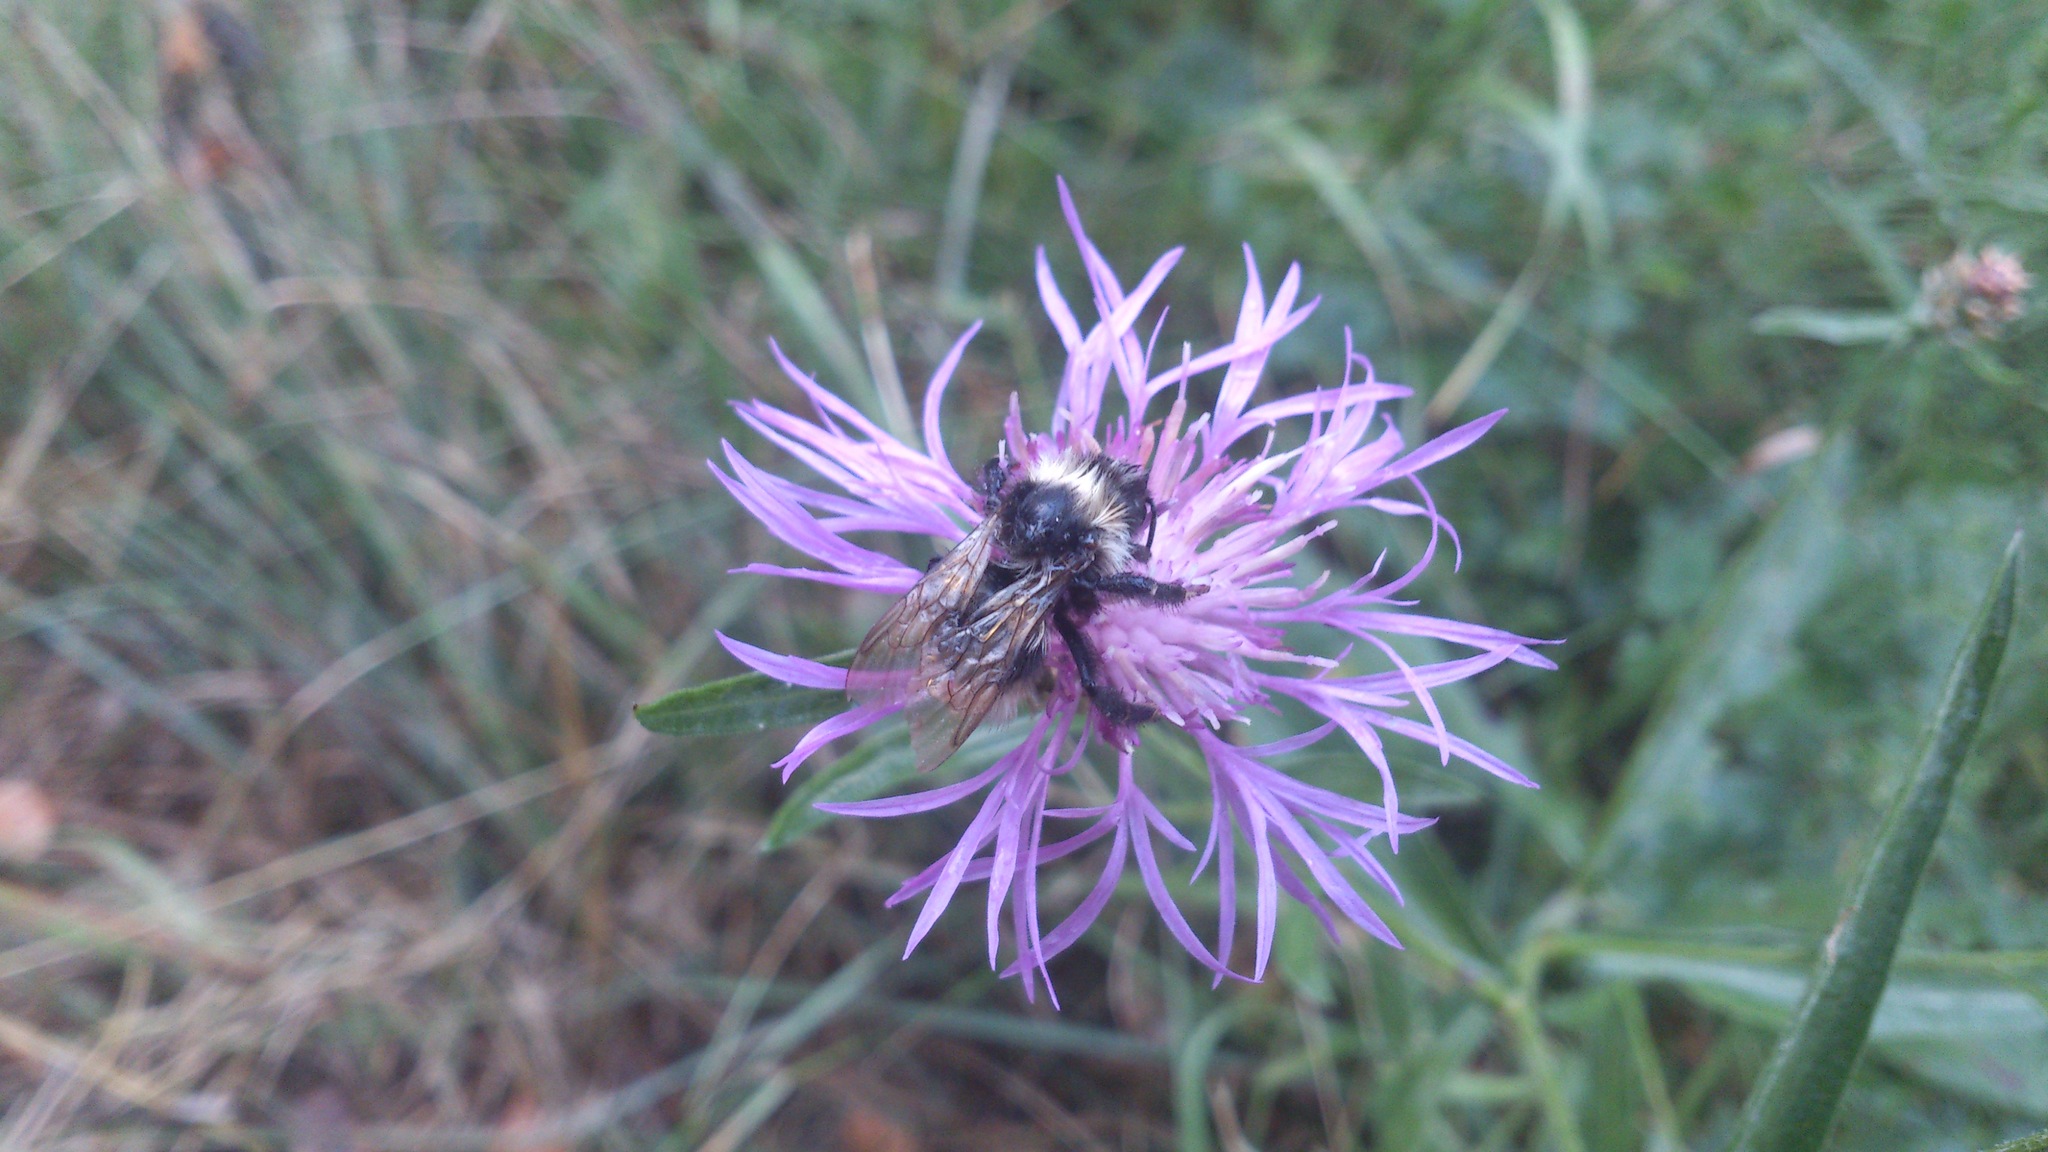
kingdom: Animalia
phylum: Arthropoda
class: Insecta
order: Hymenoptera
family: Apidae
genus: Bombus
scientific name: Bombus
